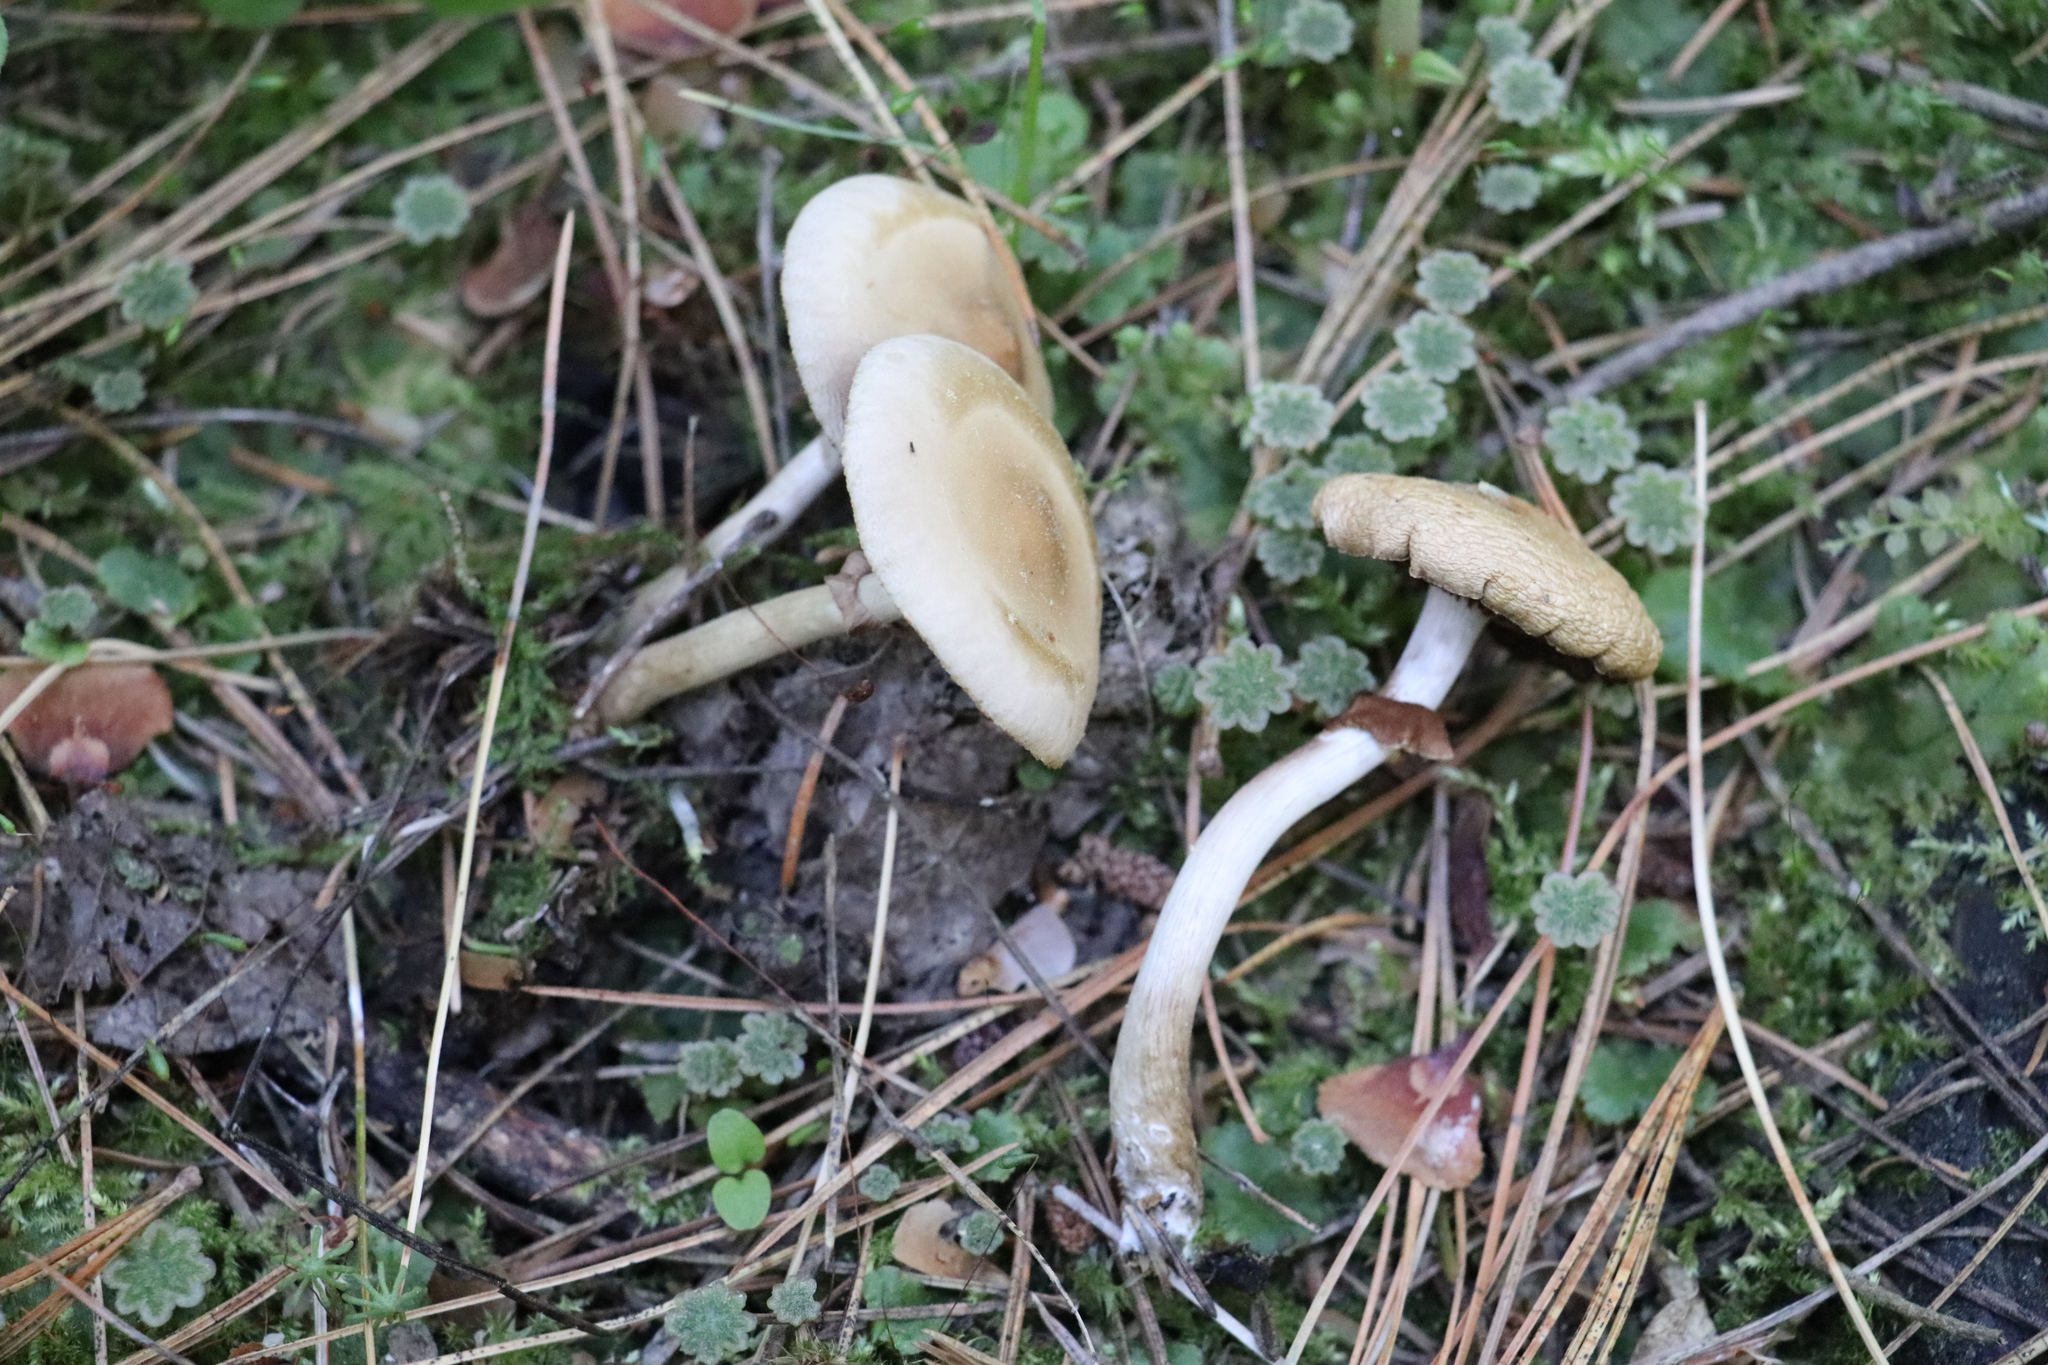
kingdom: Fungi
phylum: Basidiomycota
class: Agaricomycetes
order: Agaricales
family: Strophariaceae
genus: Agrocybe
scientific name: Agrocybe praecox
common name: Spring fieldcap
